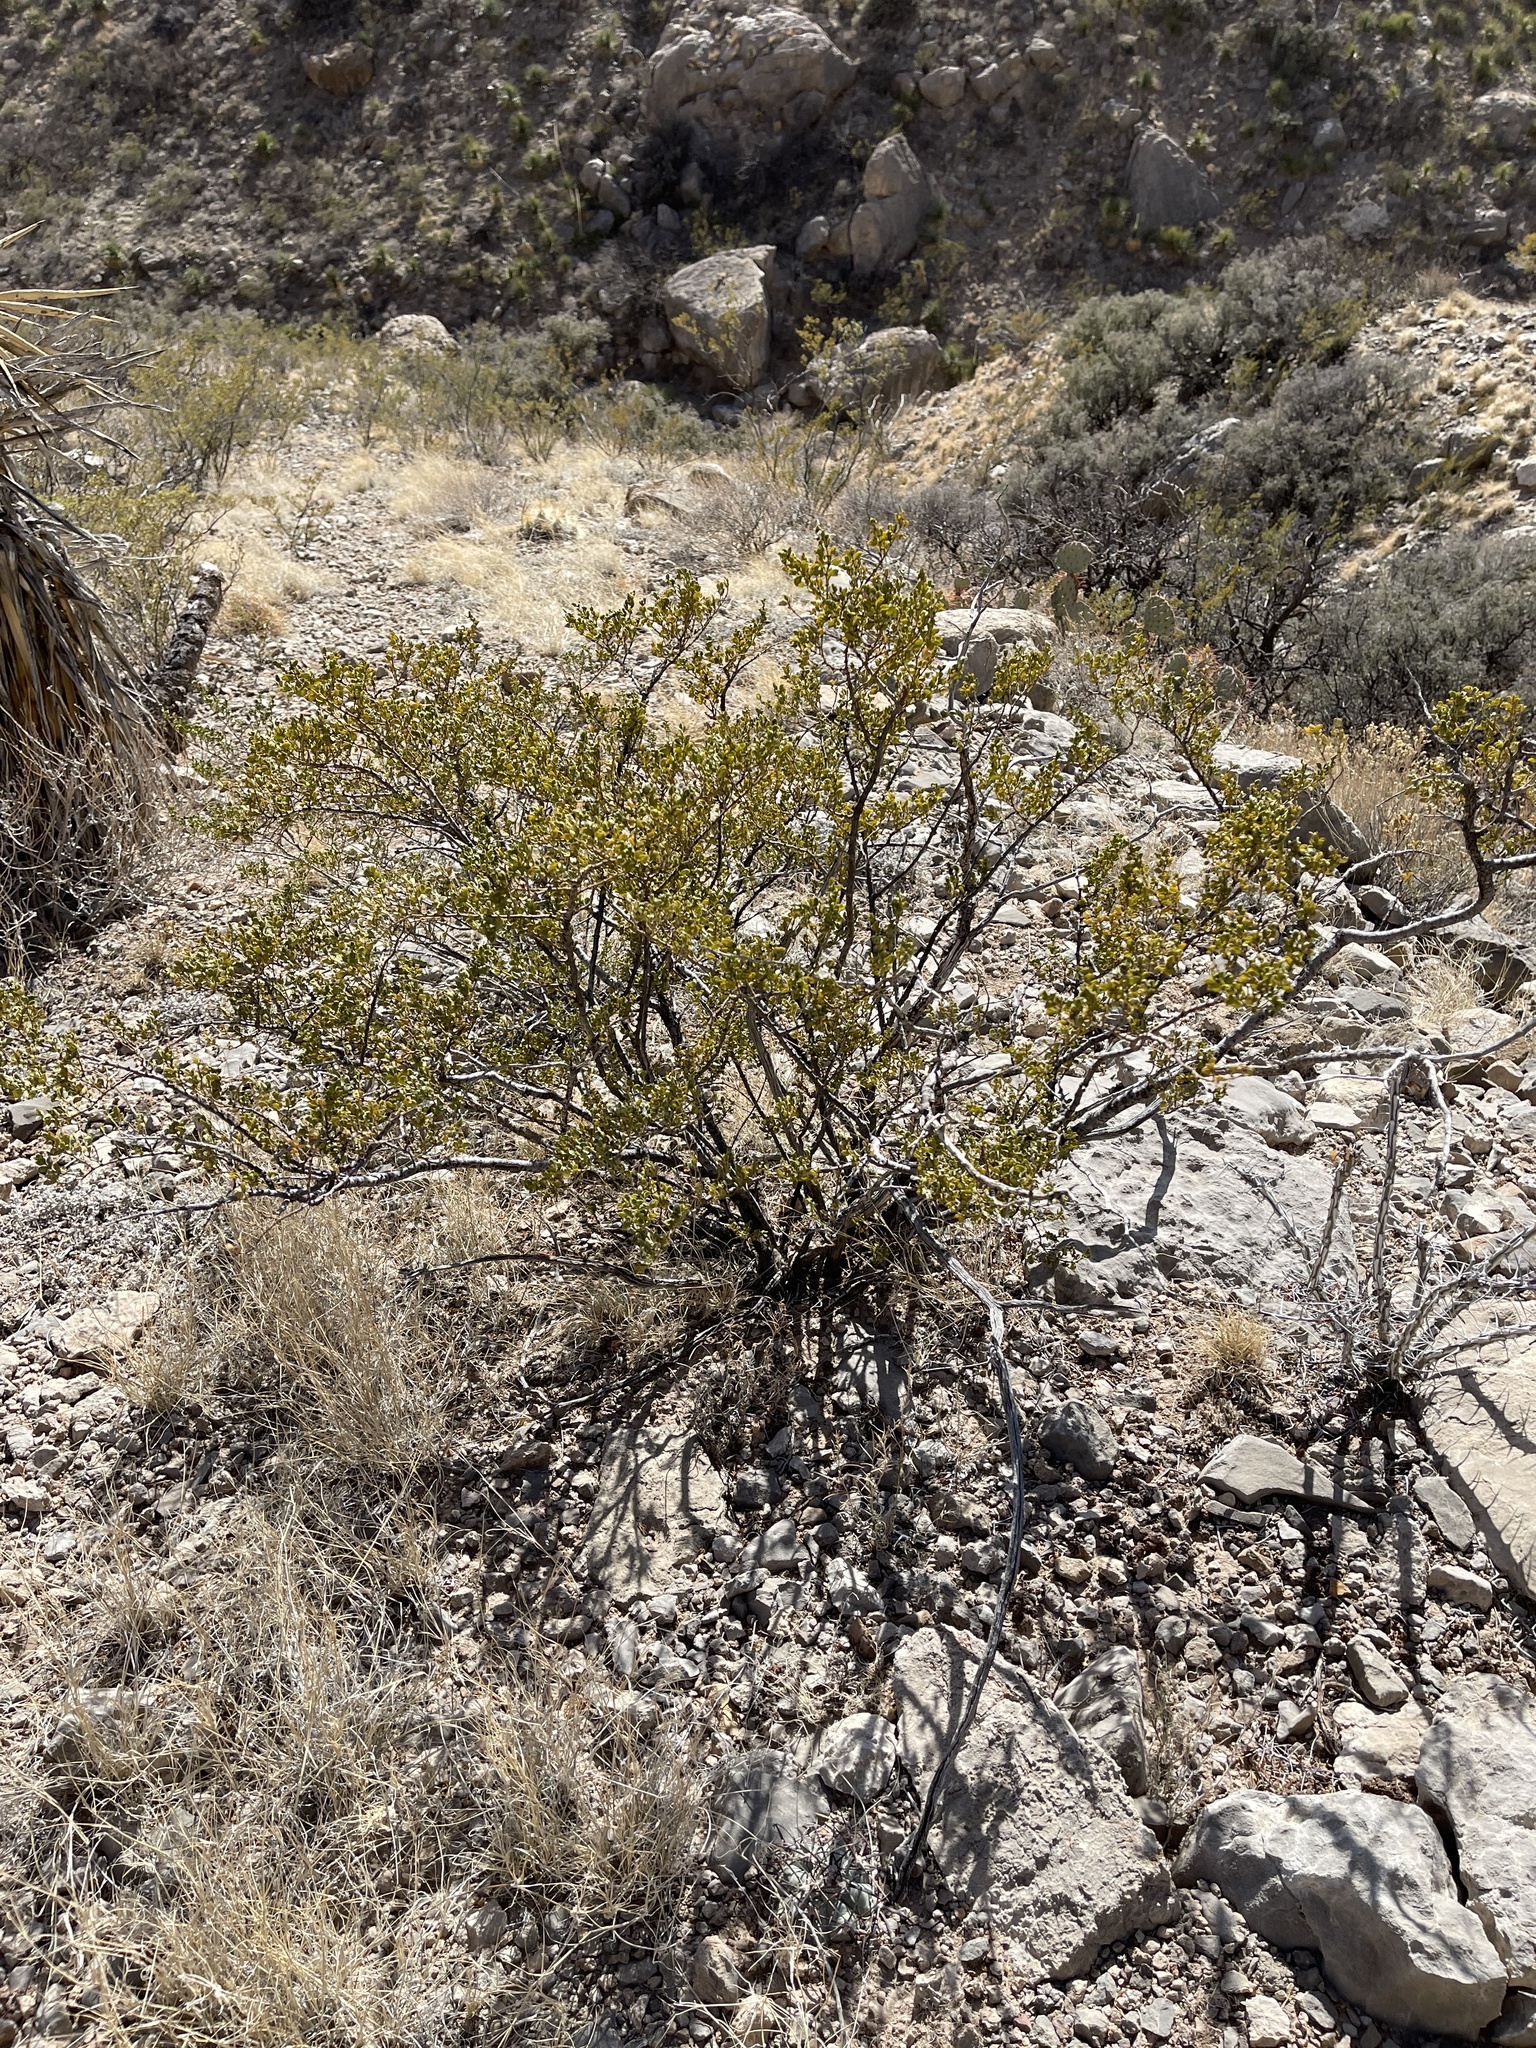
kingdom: Plantae
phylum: Tracheophyta
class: Magnoliopsida
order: Zygophyllales
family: Zygophyllaceae
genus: Larrea
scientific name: Larrea tridentata
